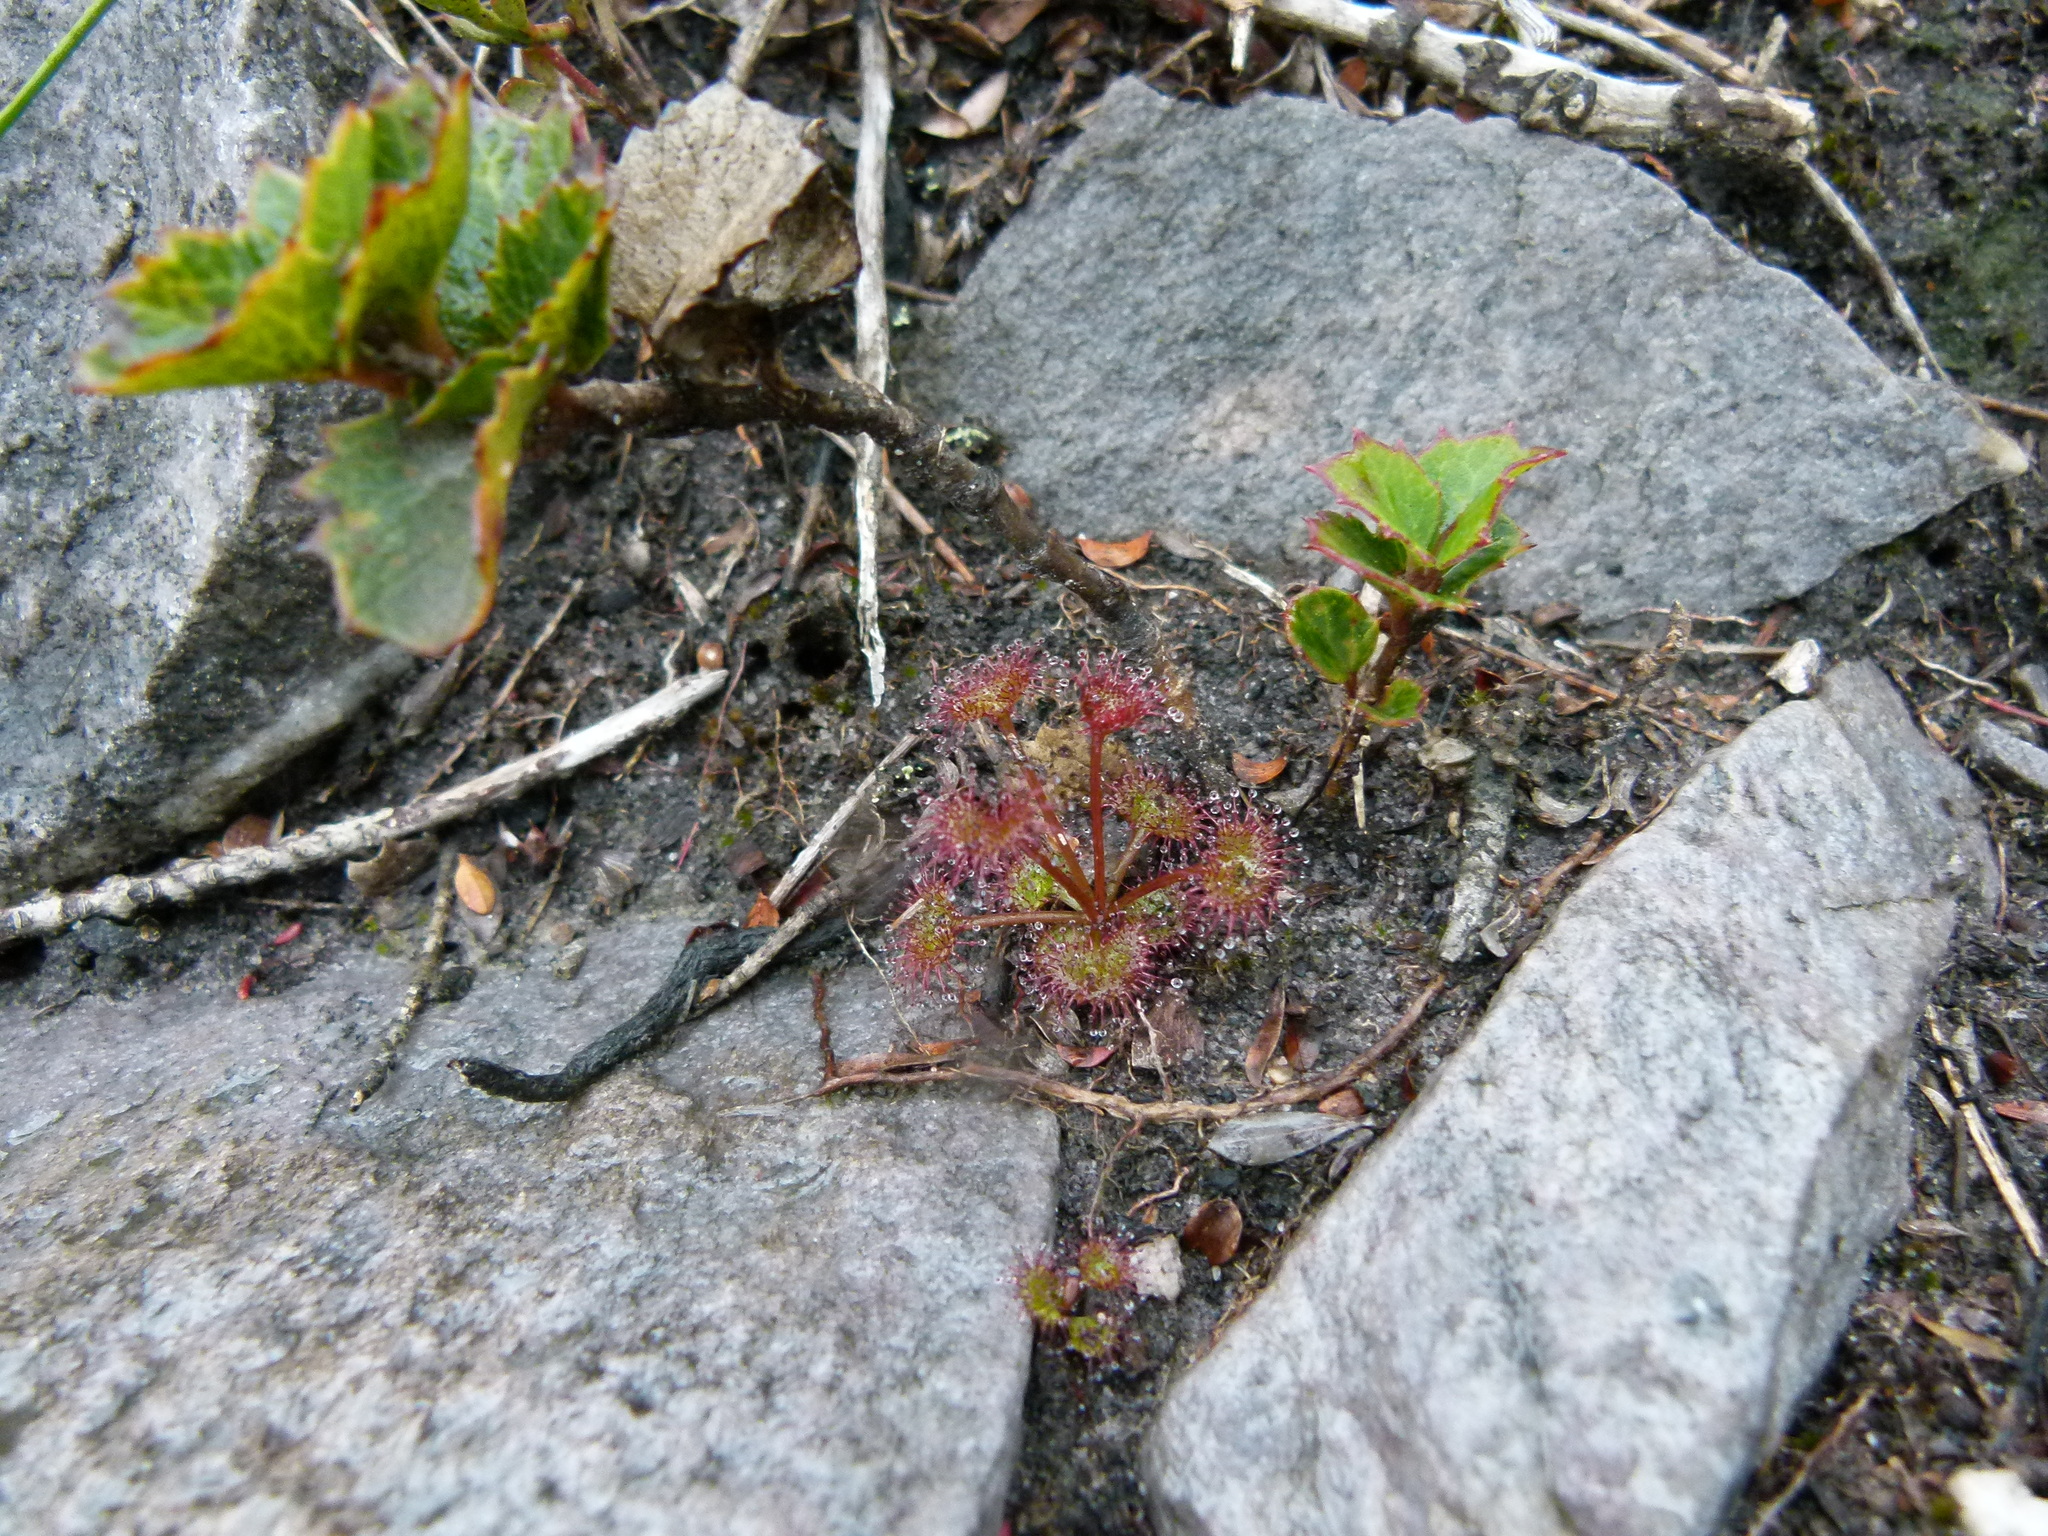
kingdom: Plantae
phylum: Tracheophyta
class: Magnoliopsida
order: Caryophyllales
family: Droseraceae
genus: Drosera
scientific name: Drosera monticola
